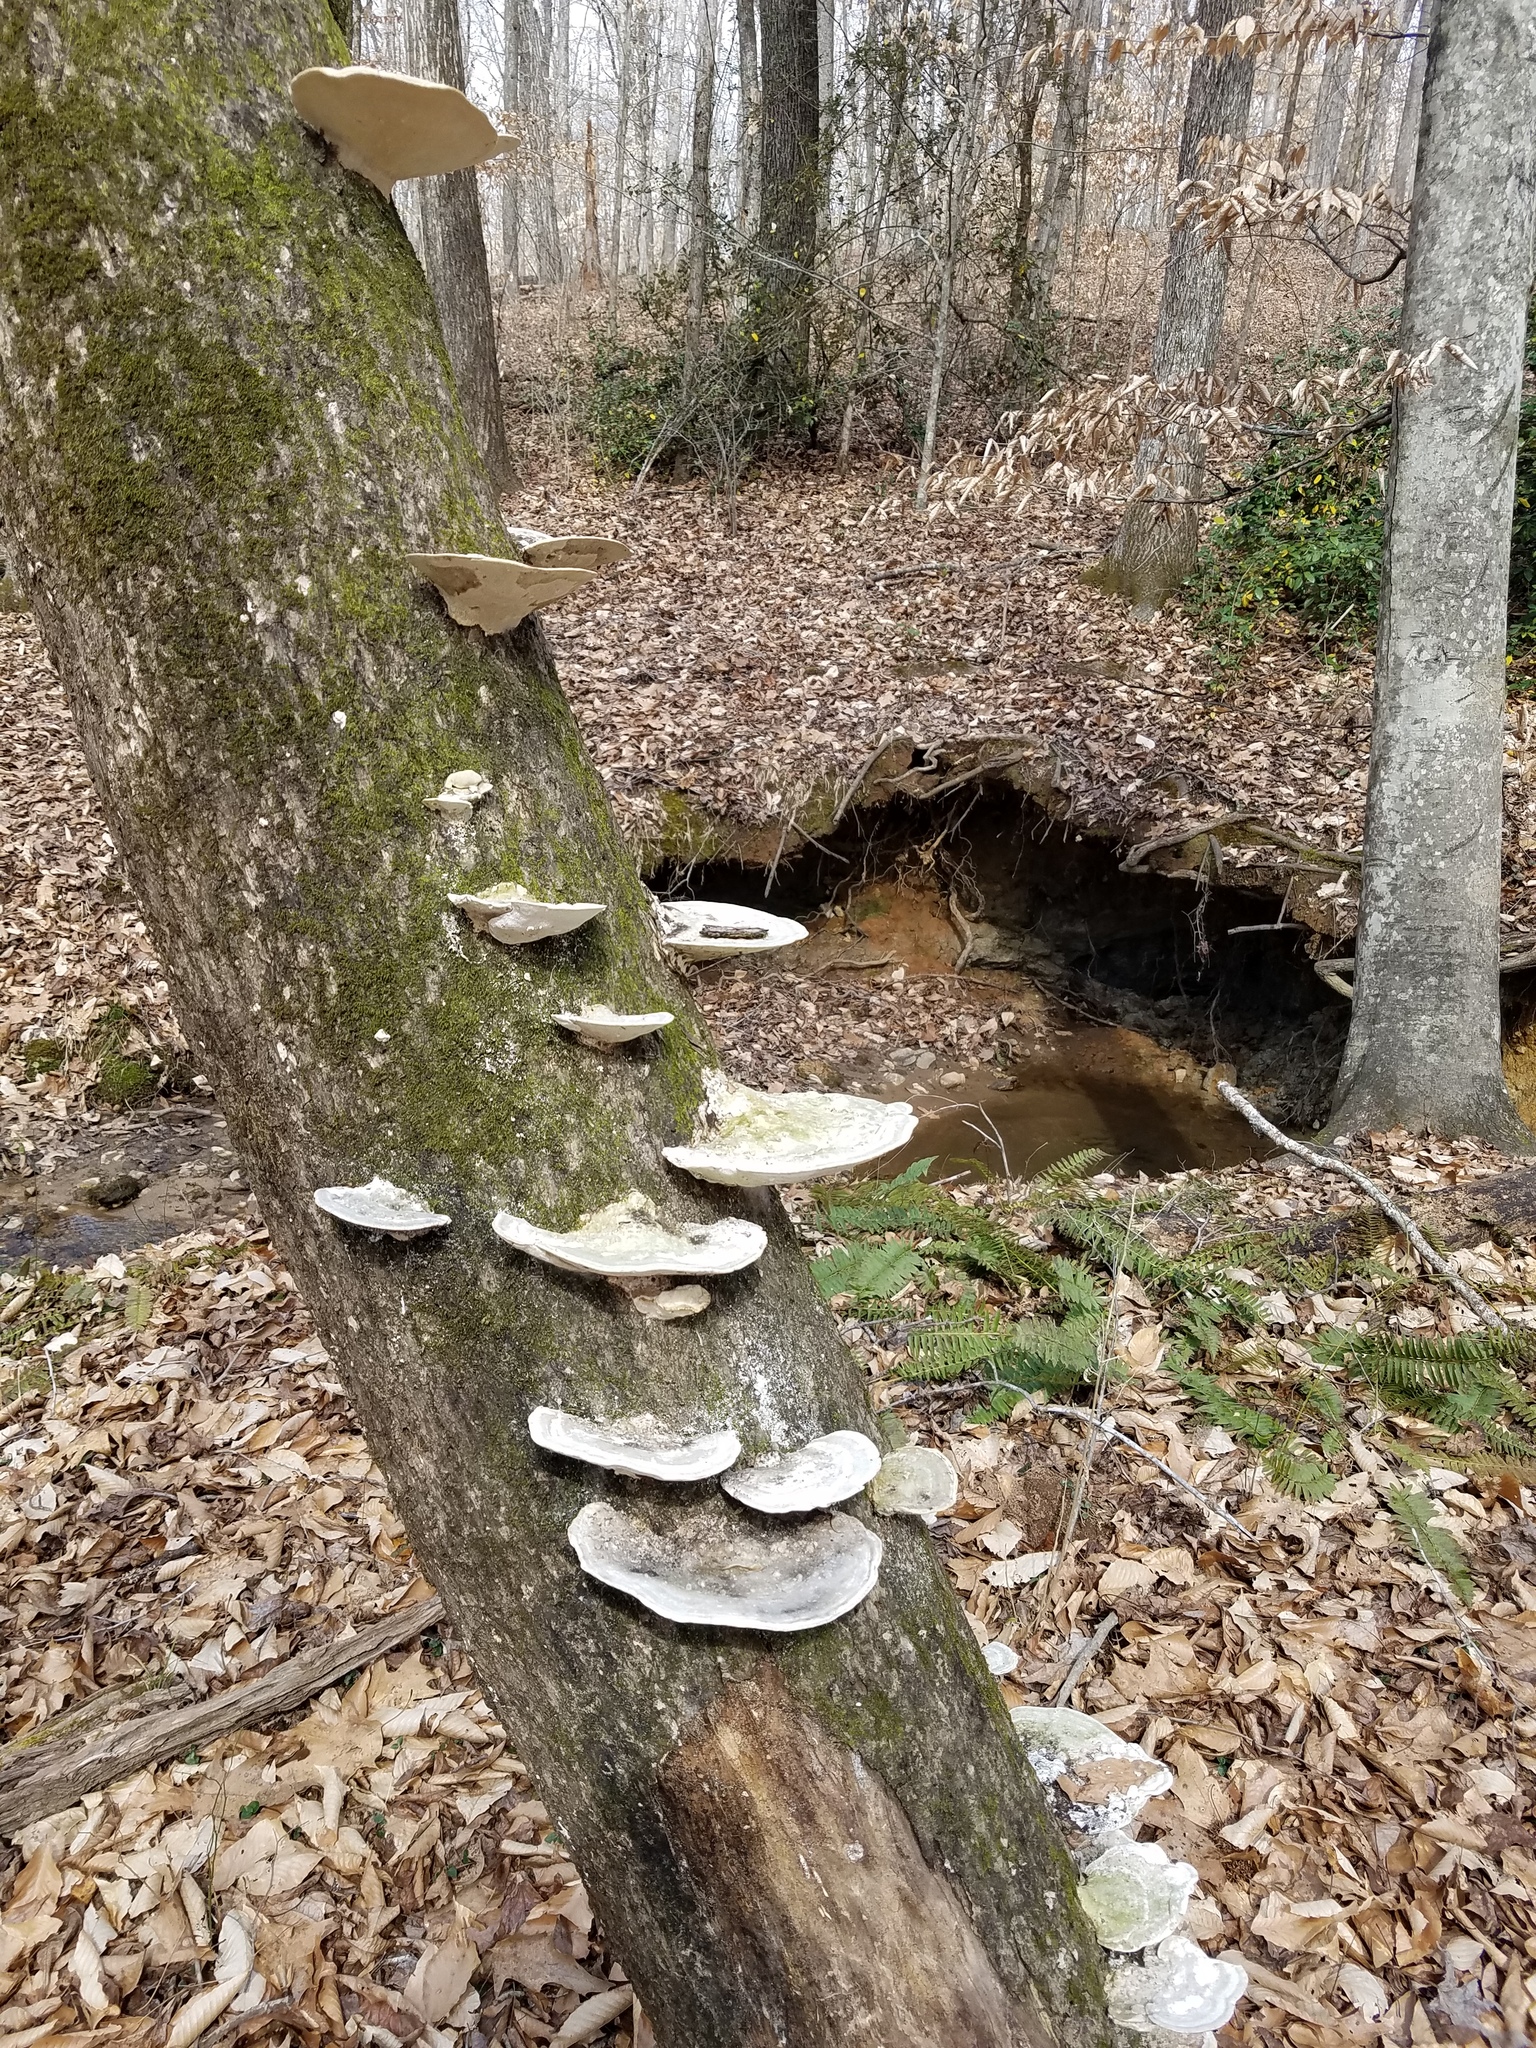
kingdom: Fungi
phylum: Basidiomycota
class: Agaricomycetes
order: Polyporales
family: Polyporaceae
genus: Trametes
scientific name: Trametes gibbosa
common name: Lumpy bracket
